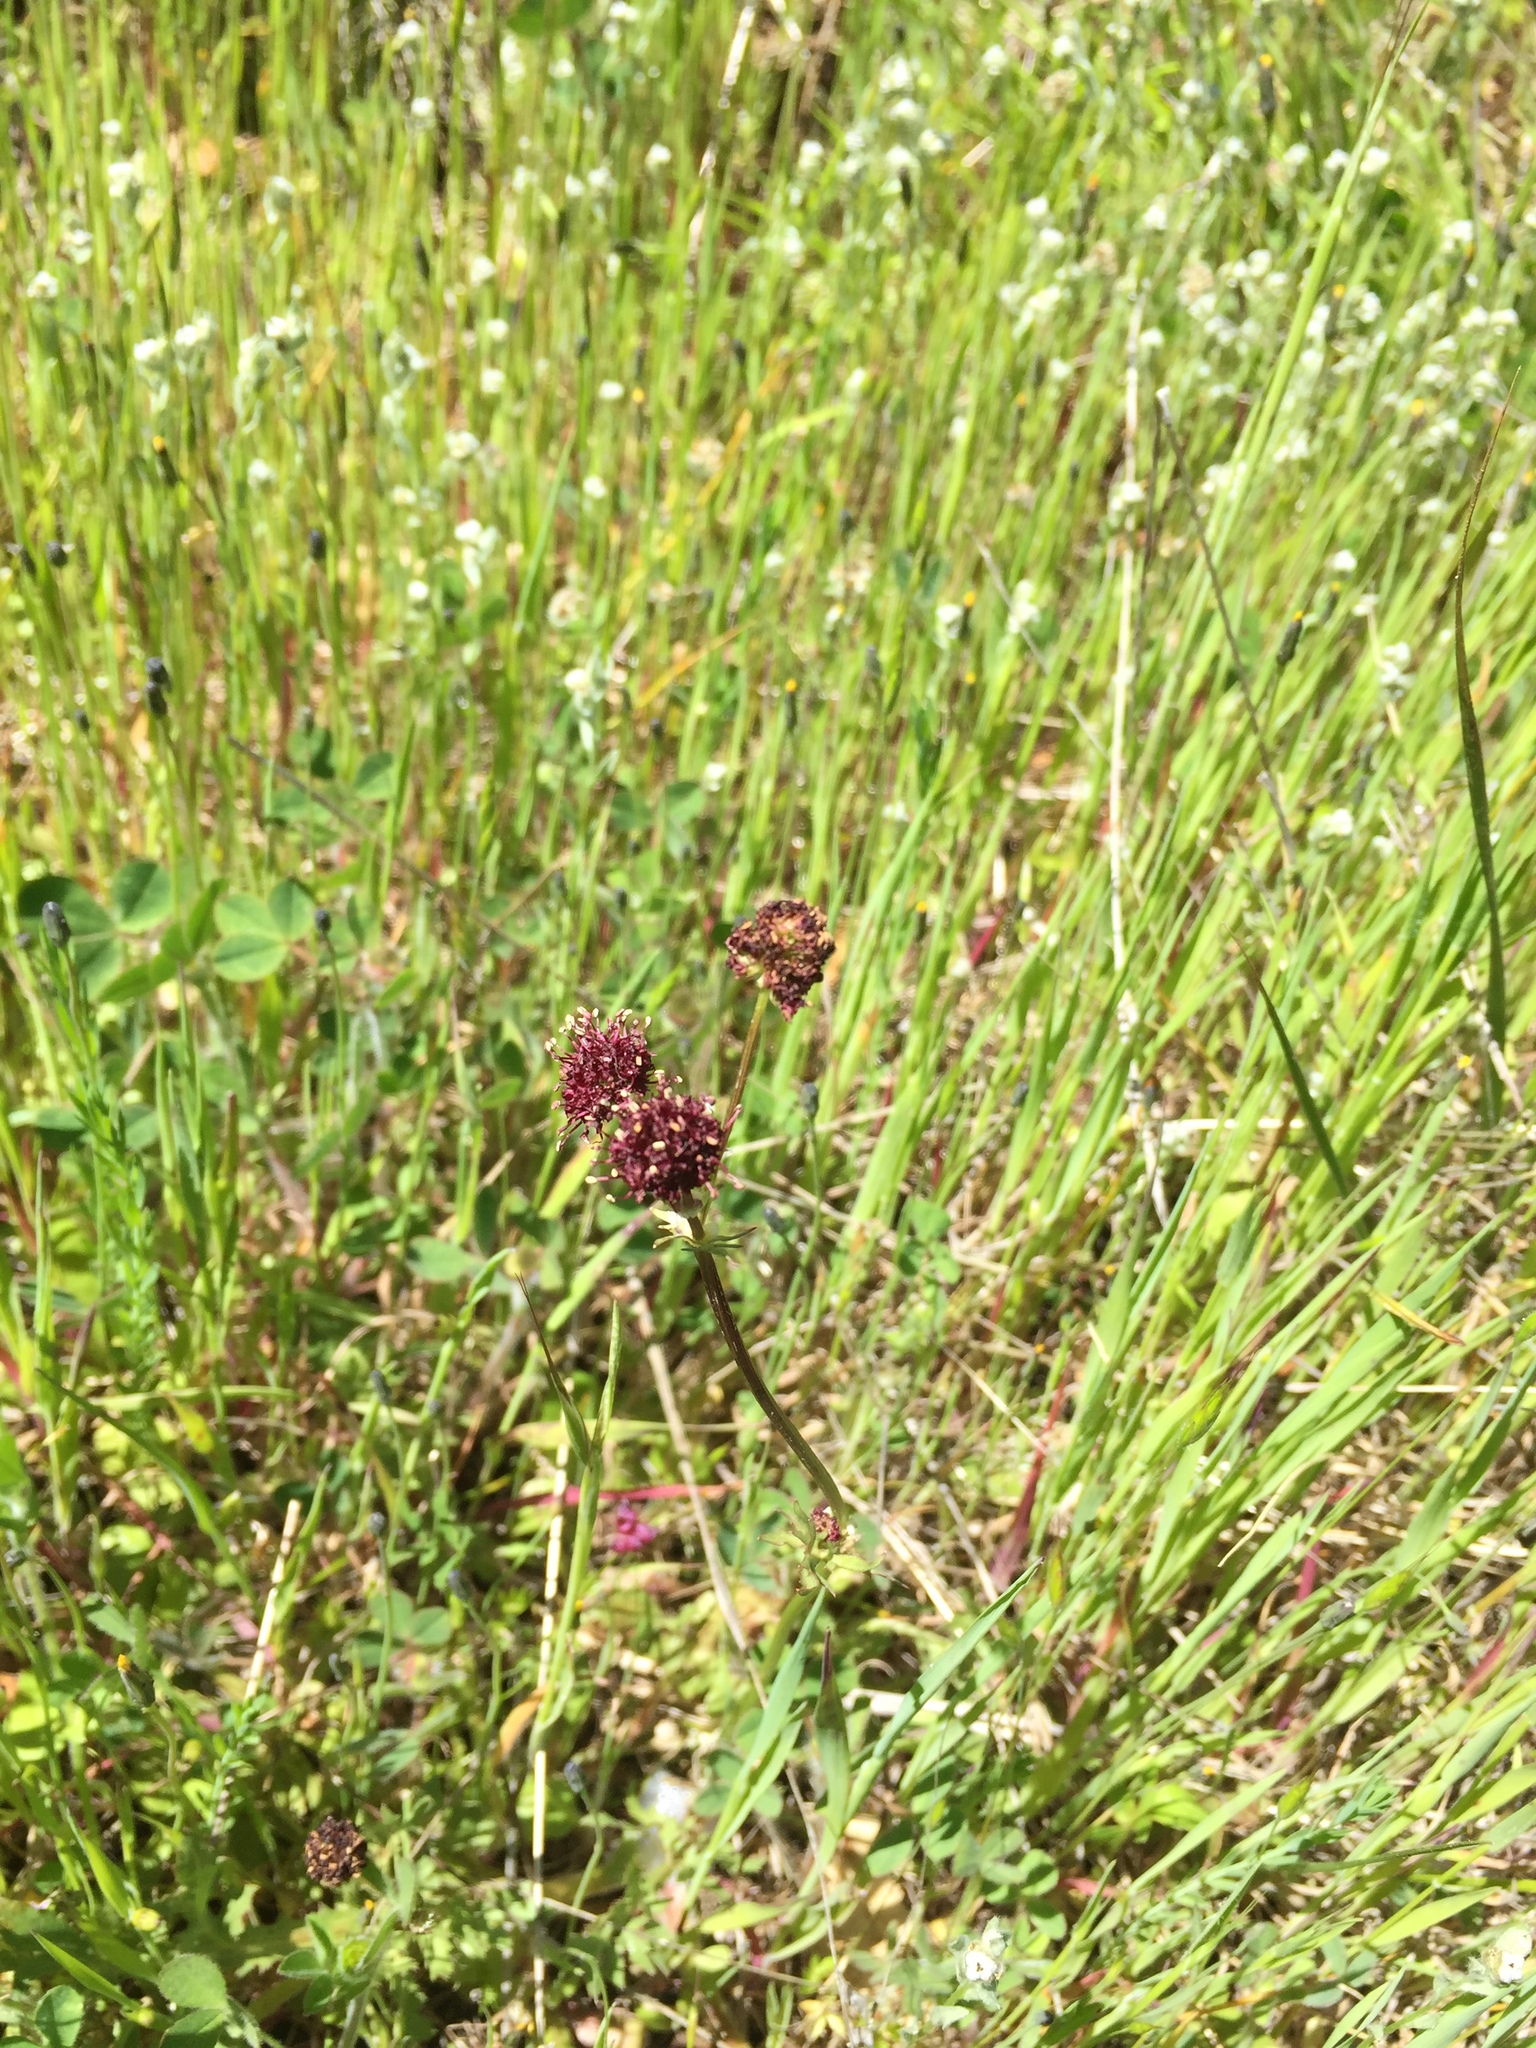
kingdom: Plantae
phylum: Tracheophyta
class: Magnoliopsida
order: Apiales
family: Apiaceae
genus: Sanicula
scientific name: Sanicula bipinnatifida
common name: Shoe-buttons
